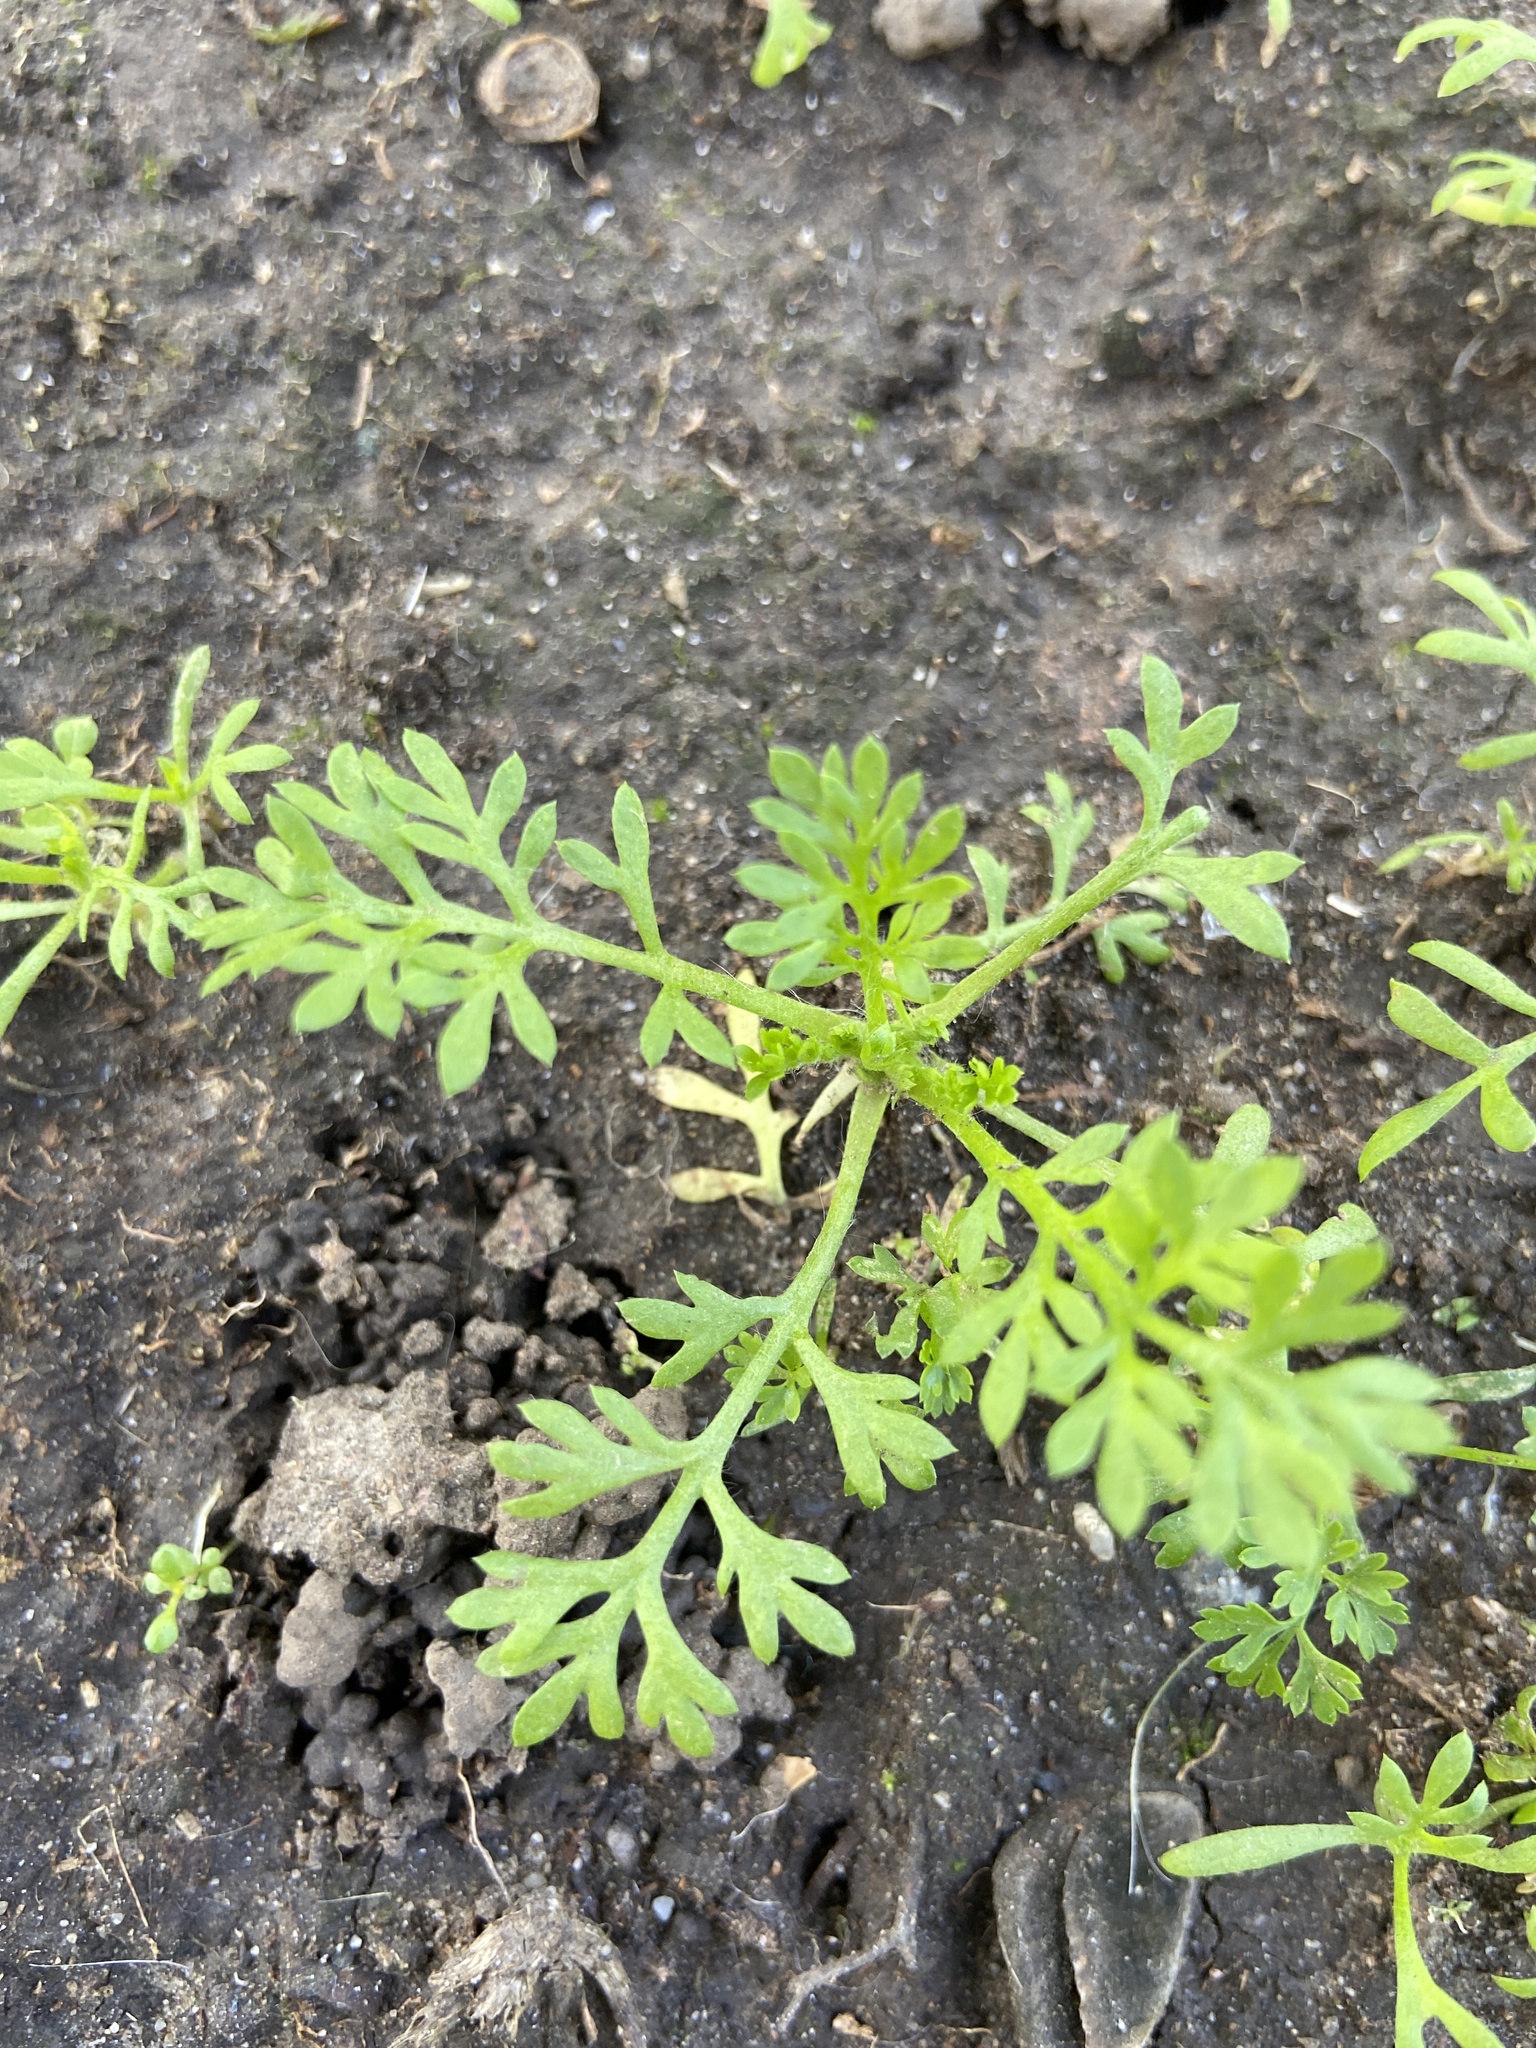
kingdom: Plantae
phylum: Tracheophyta
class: Magnoliopsida
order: Asterales
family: Asteraceae
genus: Cotula
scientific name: Cotula australis
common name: Australian waterbuttons
